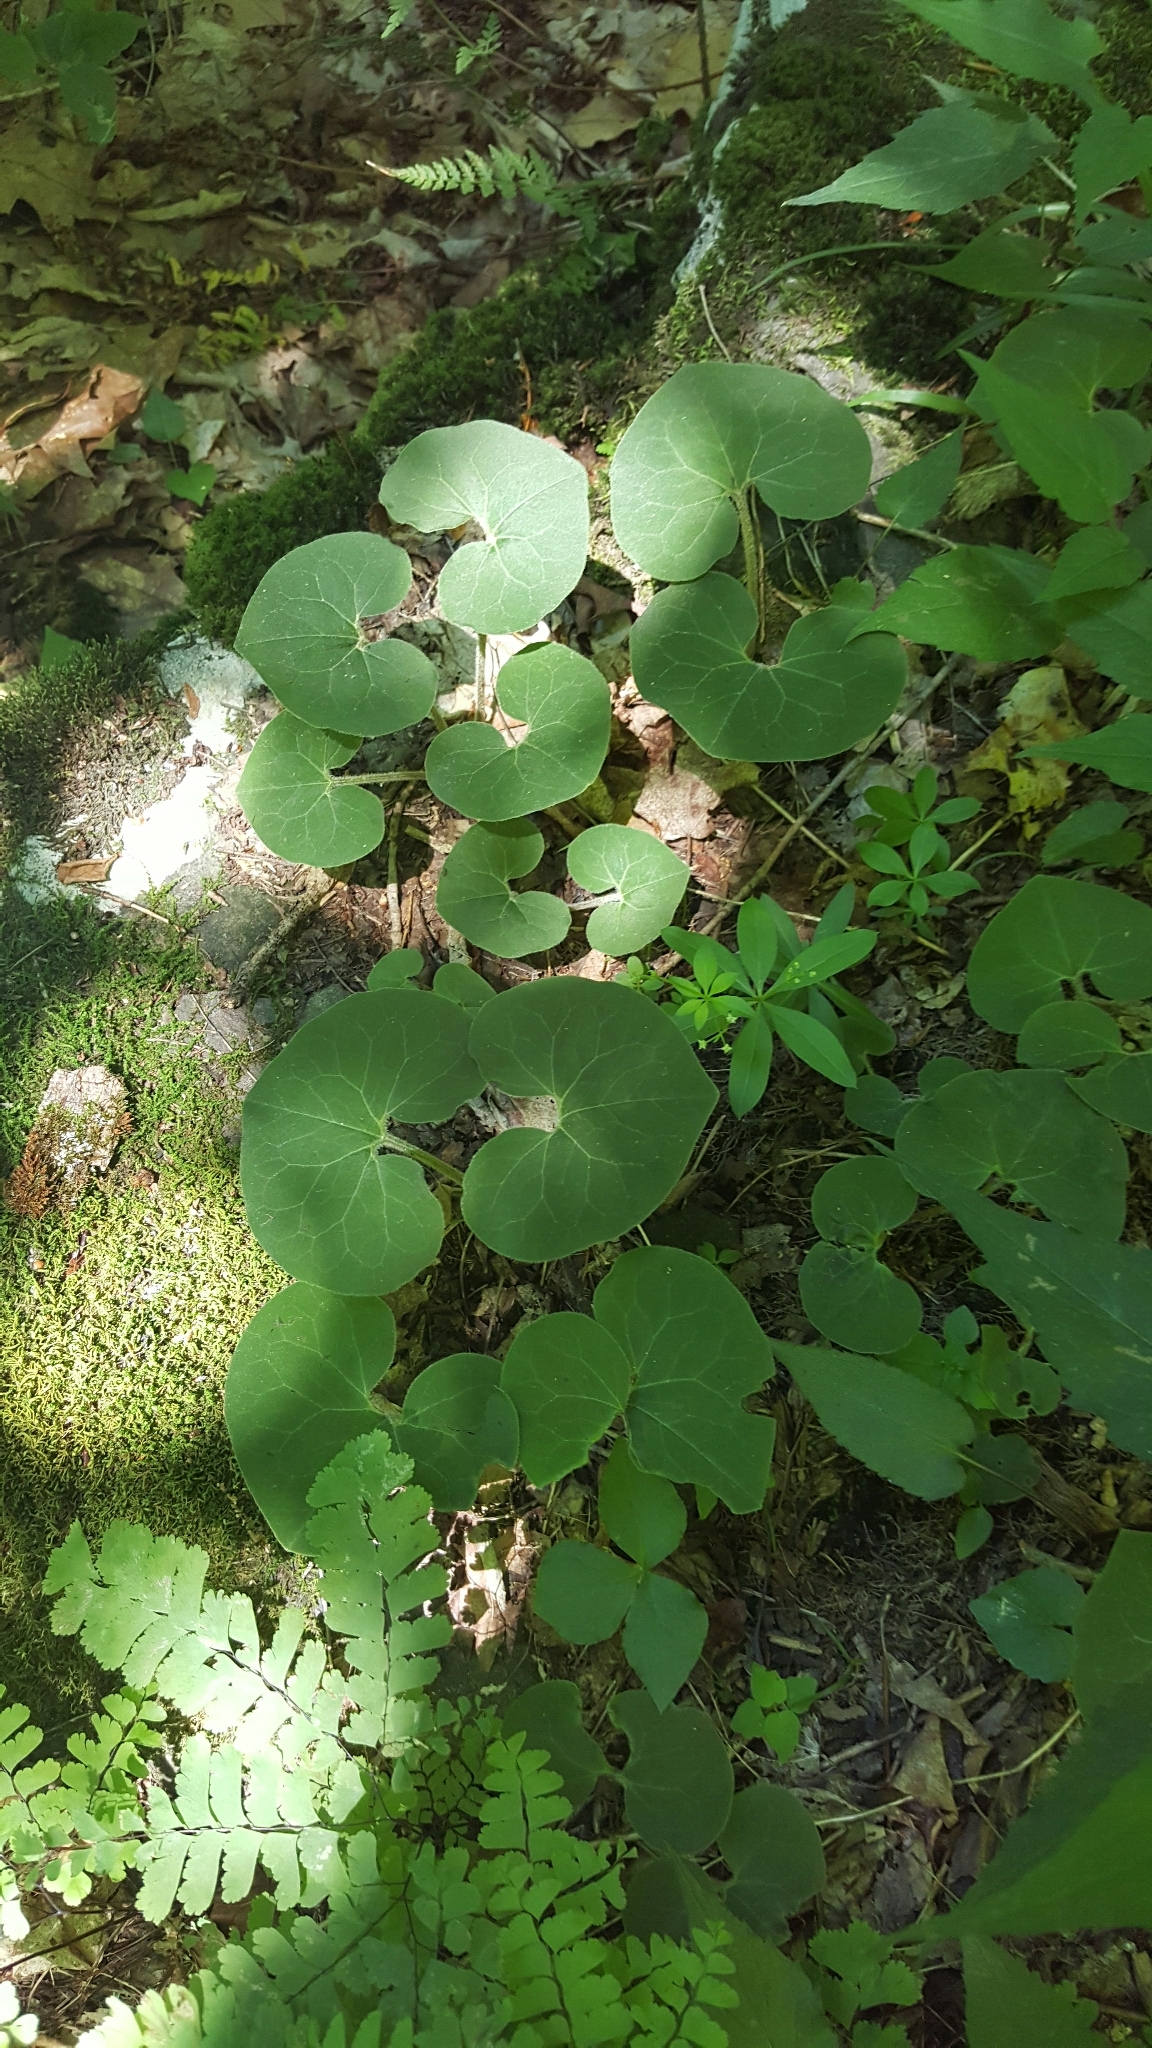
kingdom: Plantae
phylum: Tracheophyta
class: Magnoliopsida
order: Piperales
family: Aristolochiaceae
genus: Asarum
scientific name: Asarum canadense
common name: Wild ginger
